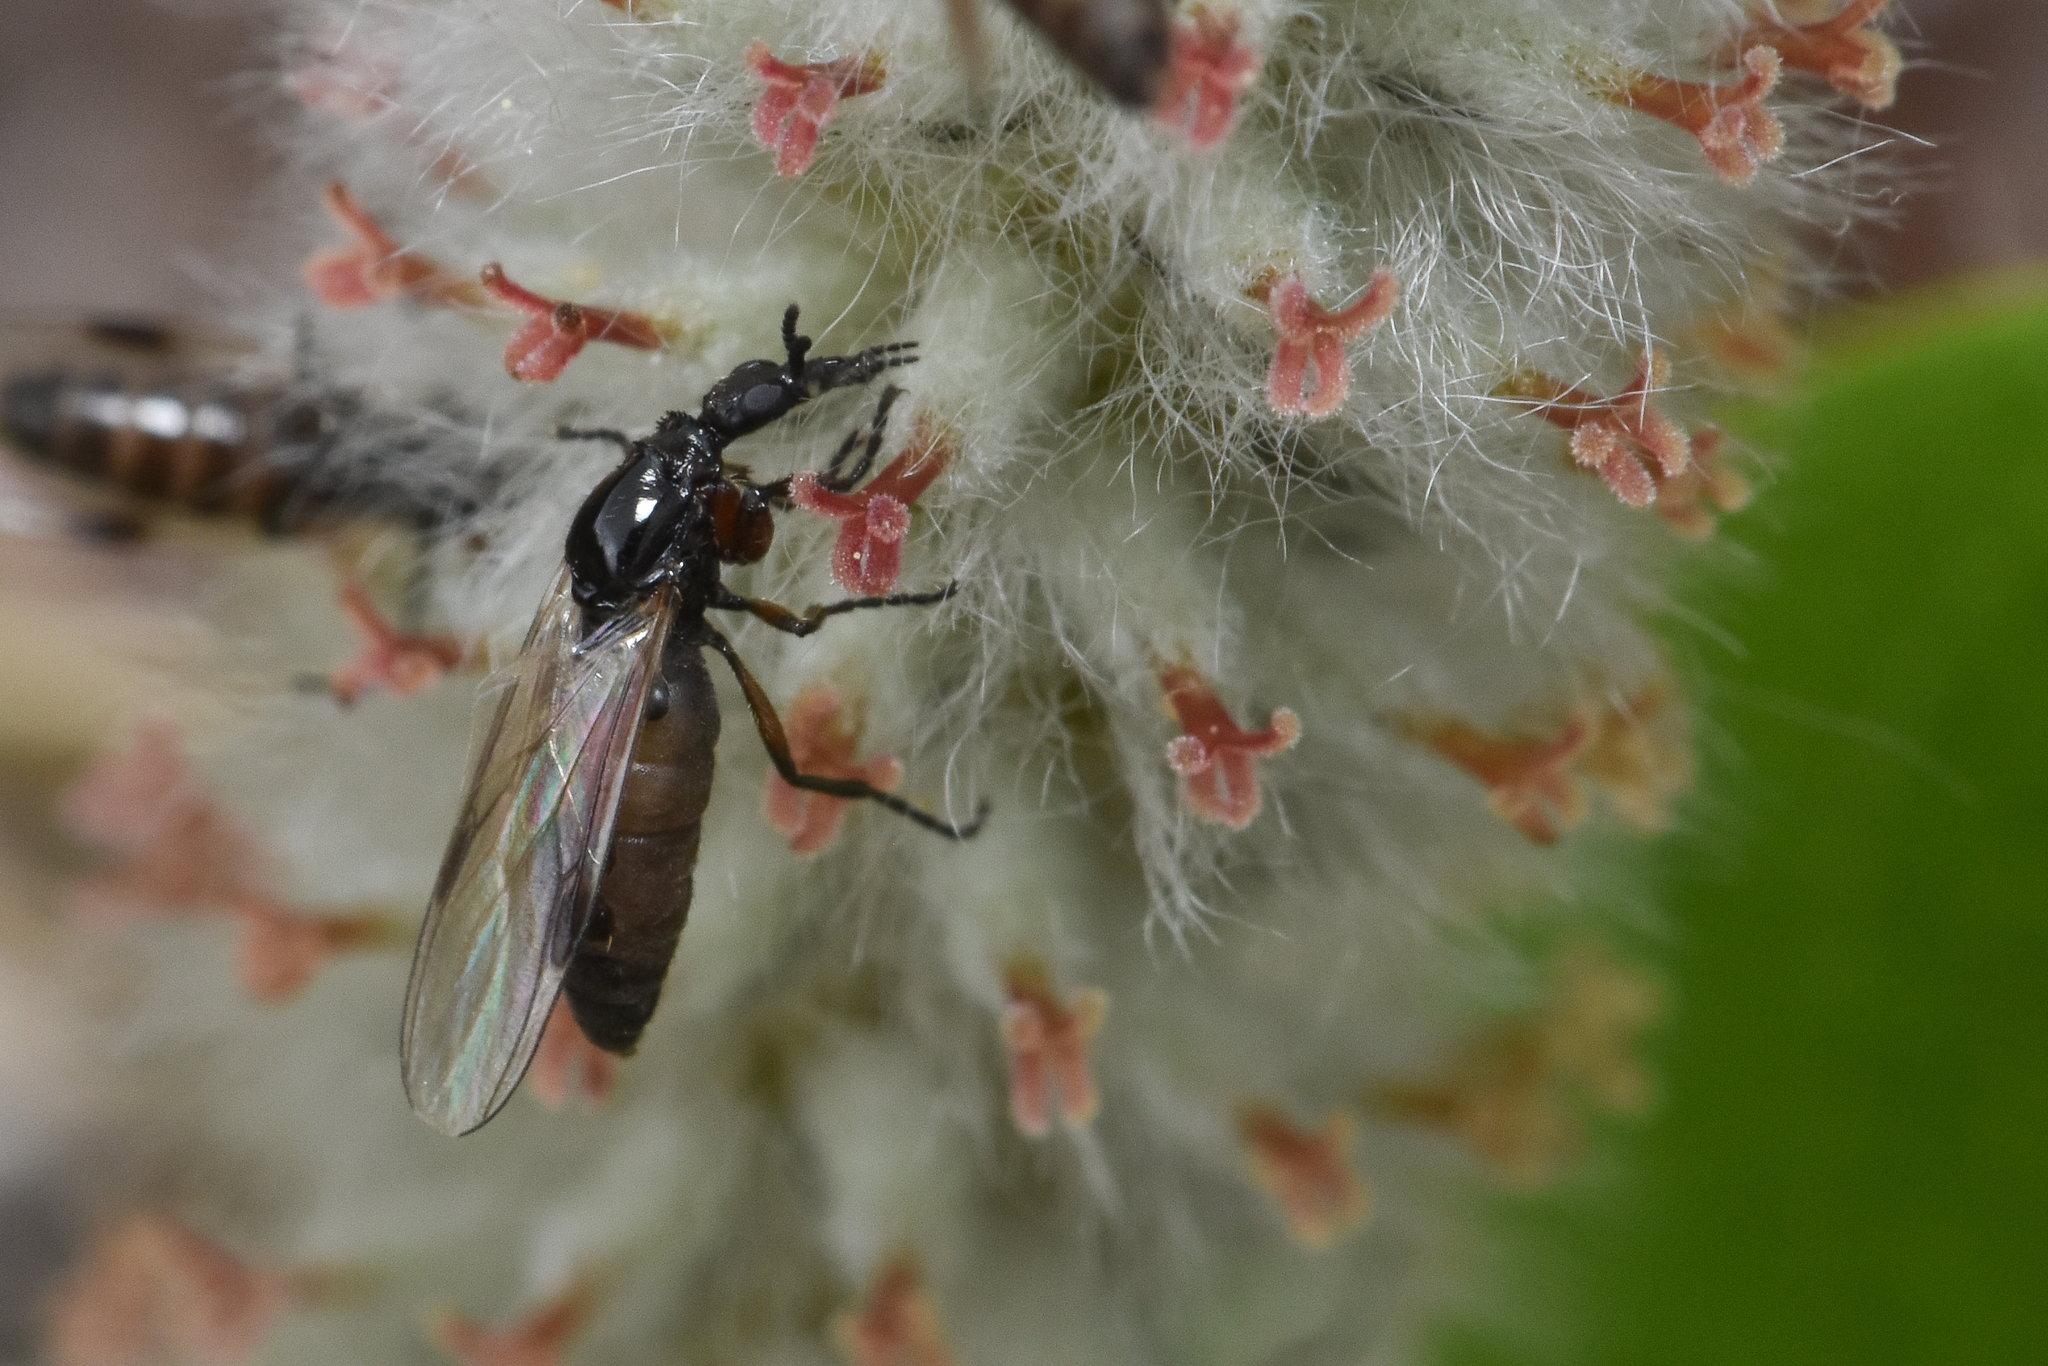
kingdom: Animalia
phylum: Arthropoda
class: Insecta
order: Diptera
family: Bibionidae
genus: Dilophus
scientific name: Dilophus
